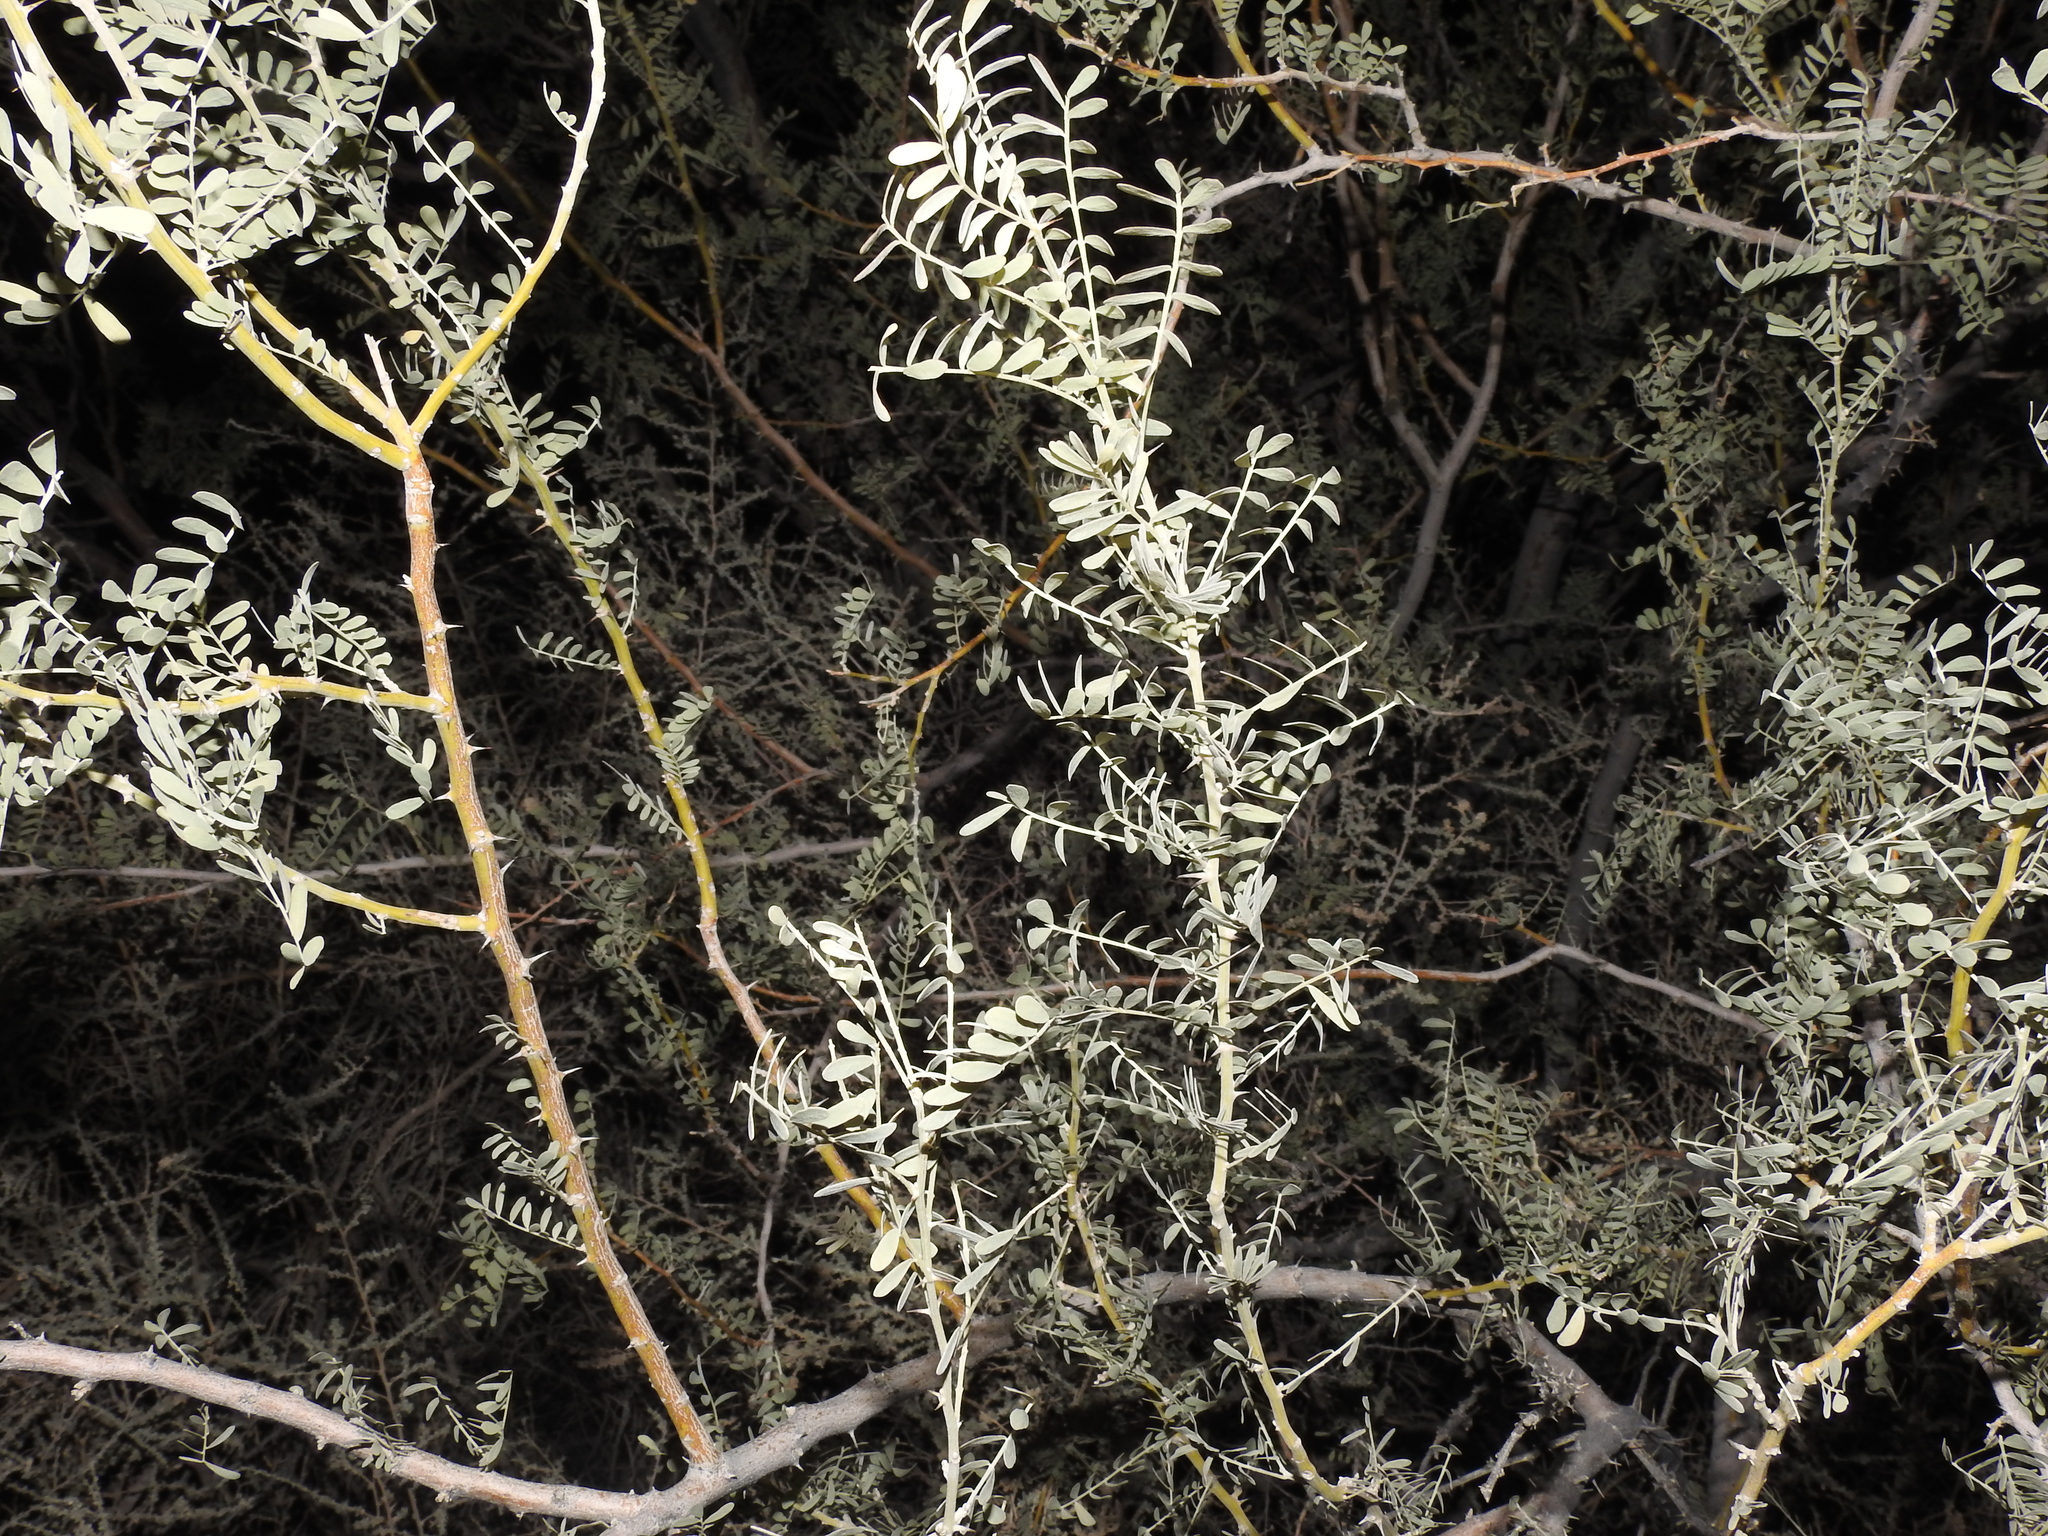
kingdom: Plantae
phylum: Tracheophyta
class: Magnoliopsida
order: Fabales
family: Fabaceae
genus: Olneya
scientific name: Olneya tesota
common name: Desert ironwood
